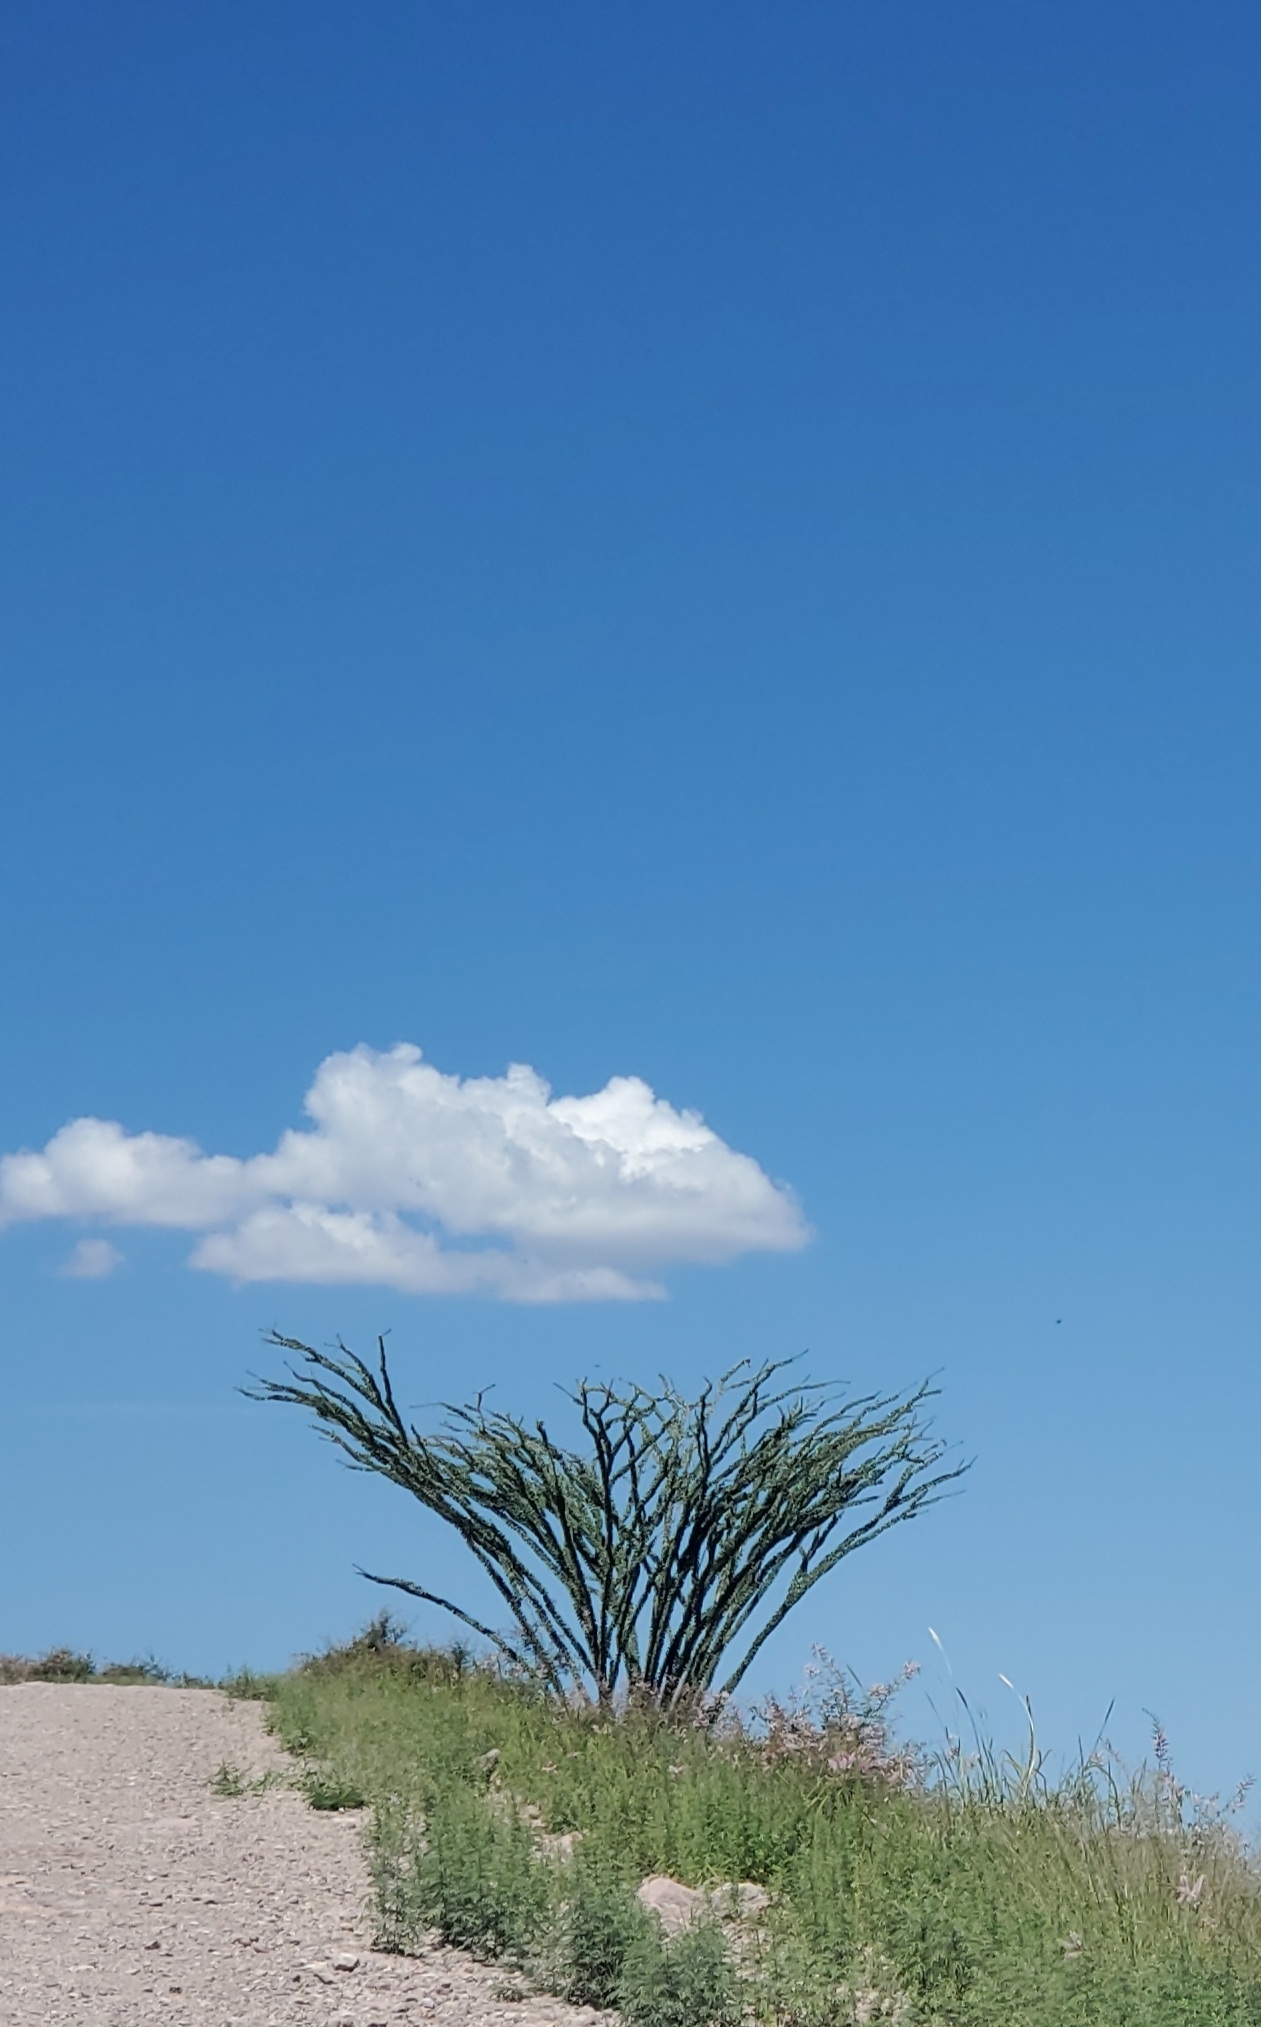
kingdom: Plantae
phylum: Tracheophyta
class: Magnoliopsida
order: Ericales
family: Fouquieriaceae
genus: Fouquieria
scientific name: Fouquieria splendens
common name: Vine-cactus
